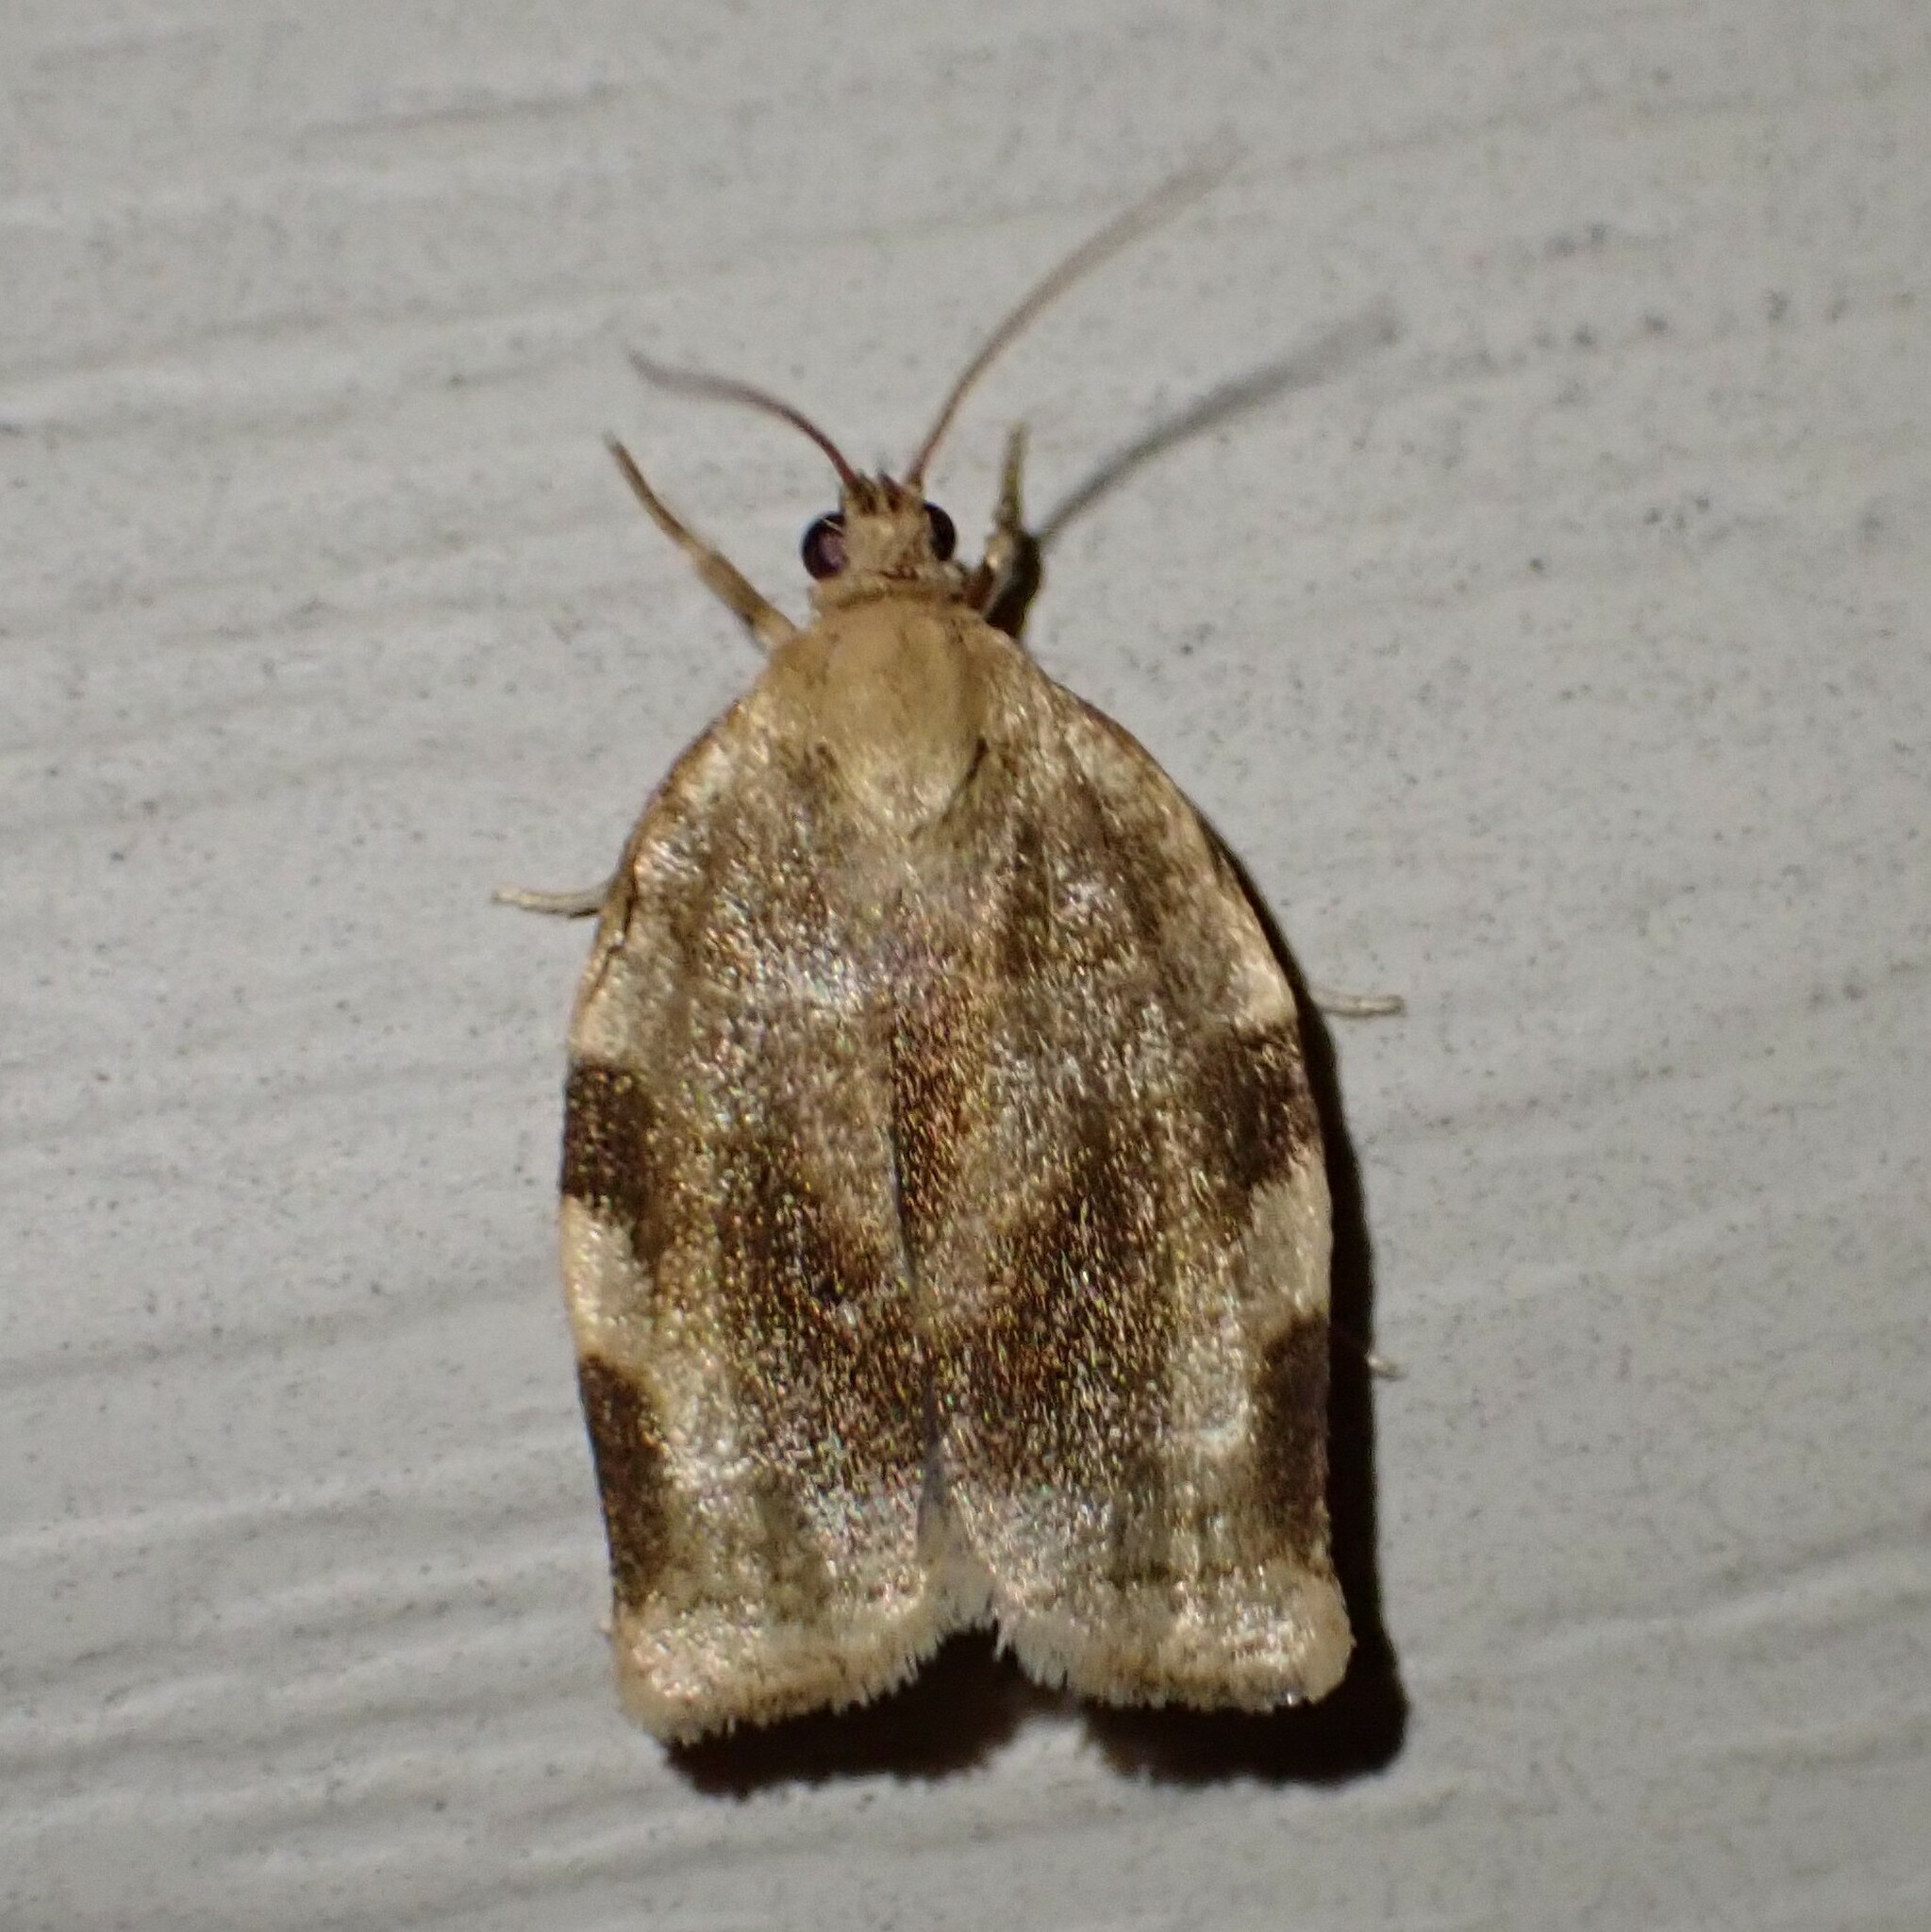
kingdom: Animalia
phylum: Arthropoda
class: Insecta
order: Lepidoptera
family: Tortricidae
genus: Choristoneura
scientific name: Choristoneura fractivittana
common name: Broken-banded leafroller moth
